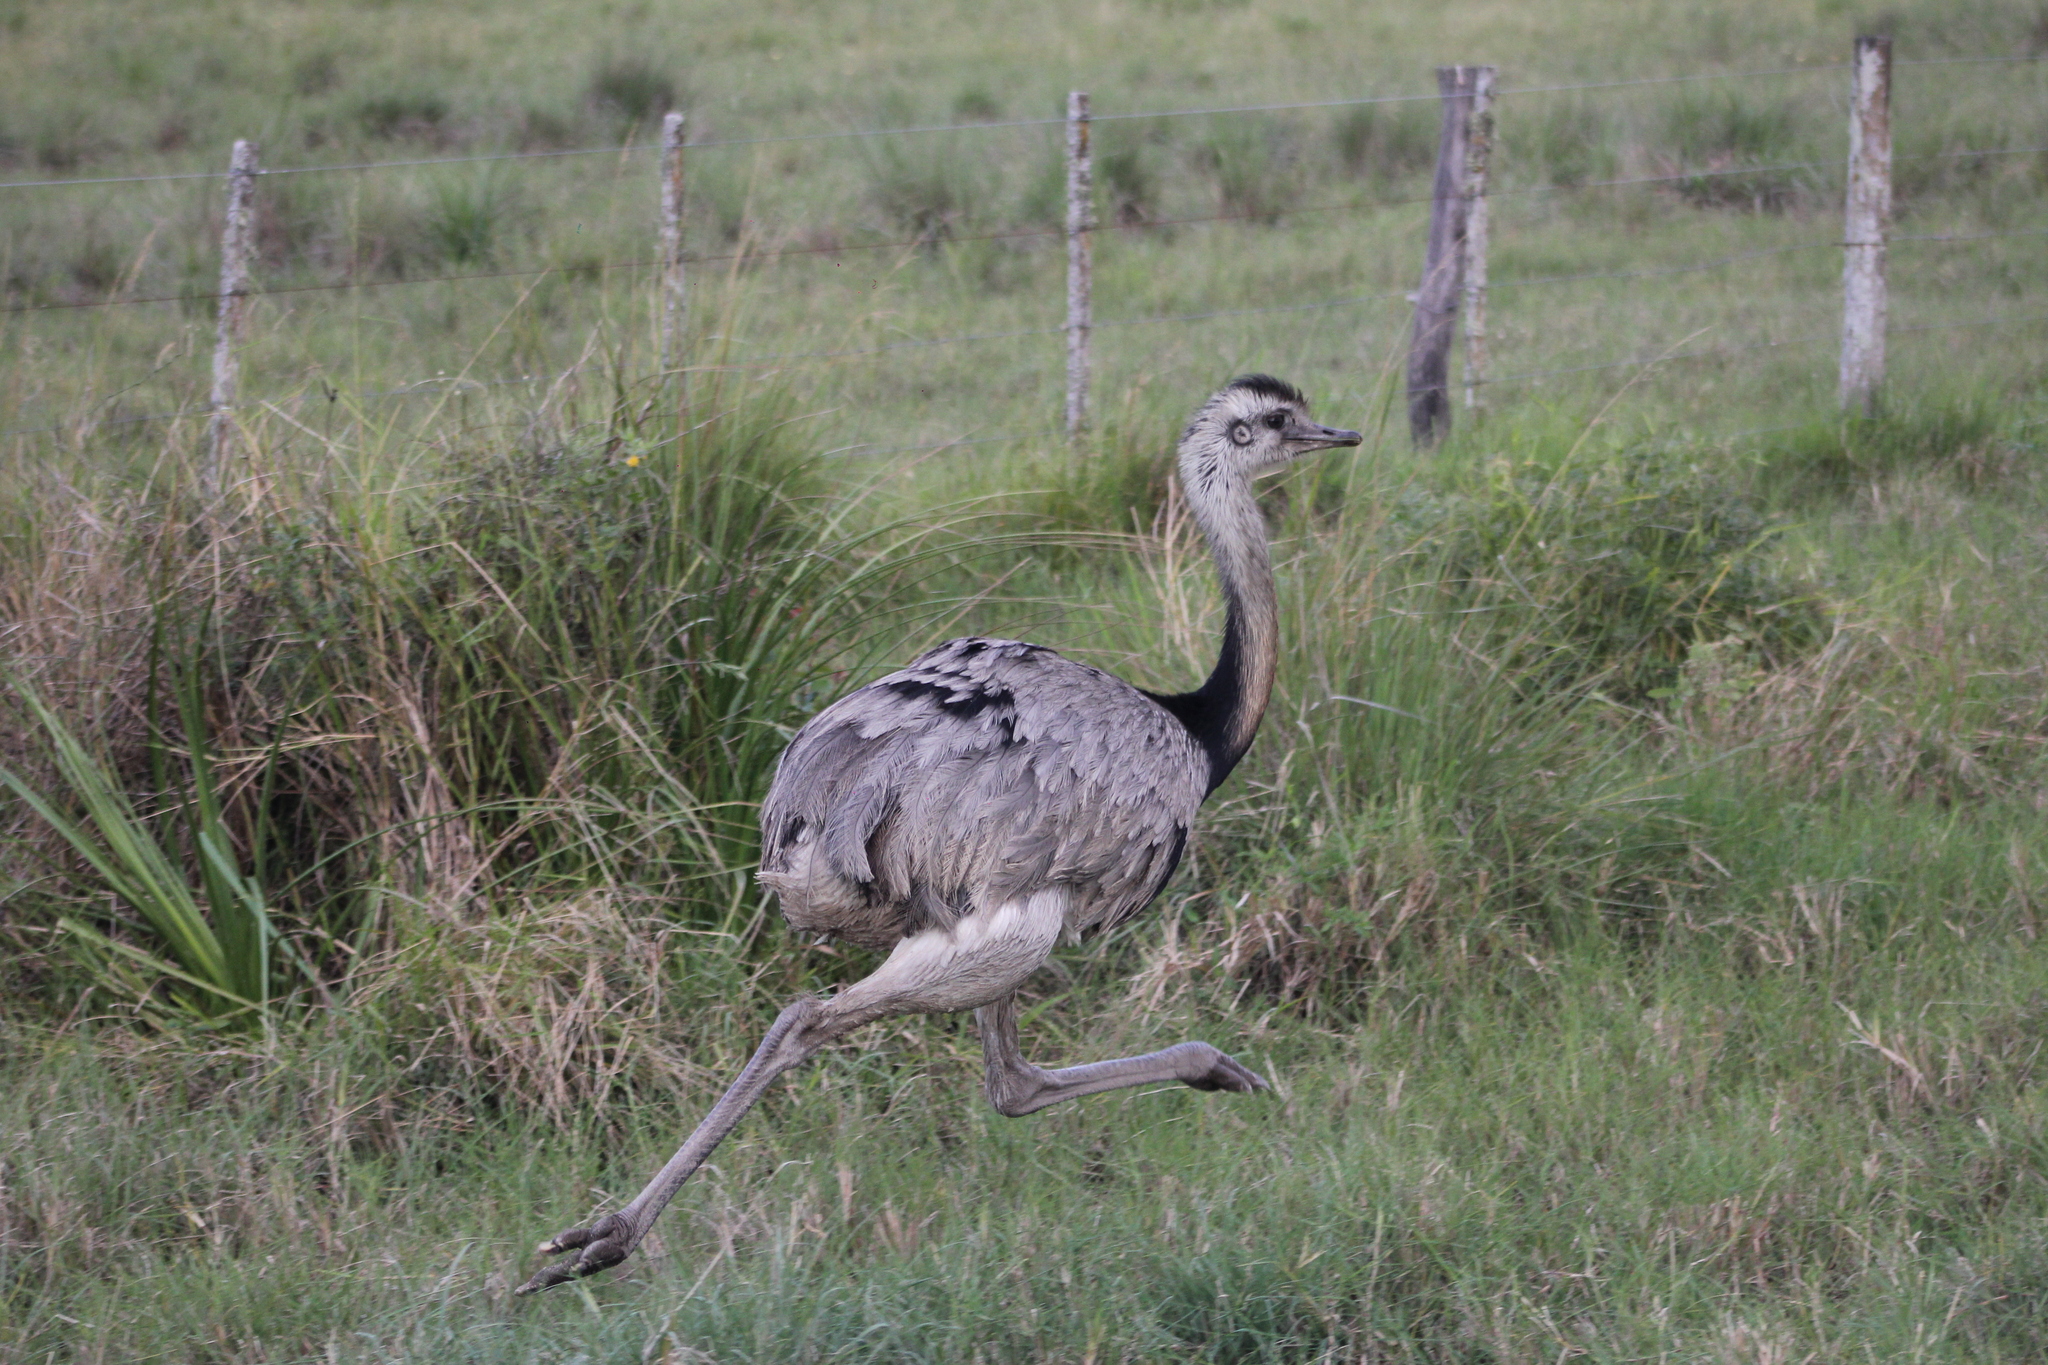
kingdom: Animalia
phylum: Chordata
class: Aves
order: Rheiformes
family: Rheidae
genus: Rhea
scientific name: Rhea americana
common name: Greater rhea
